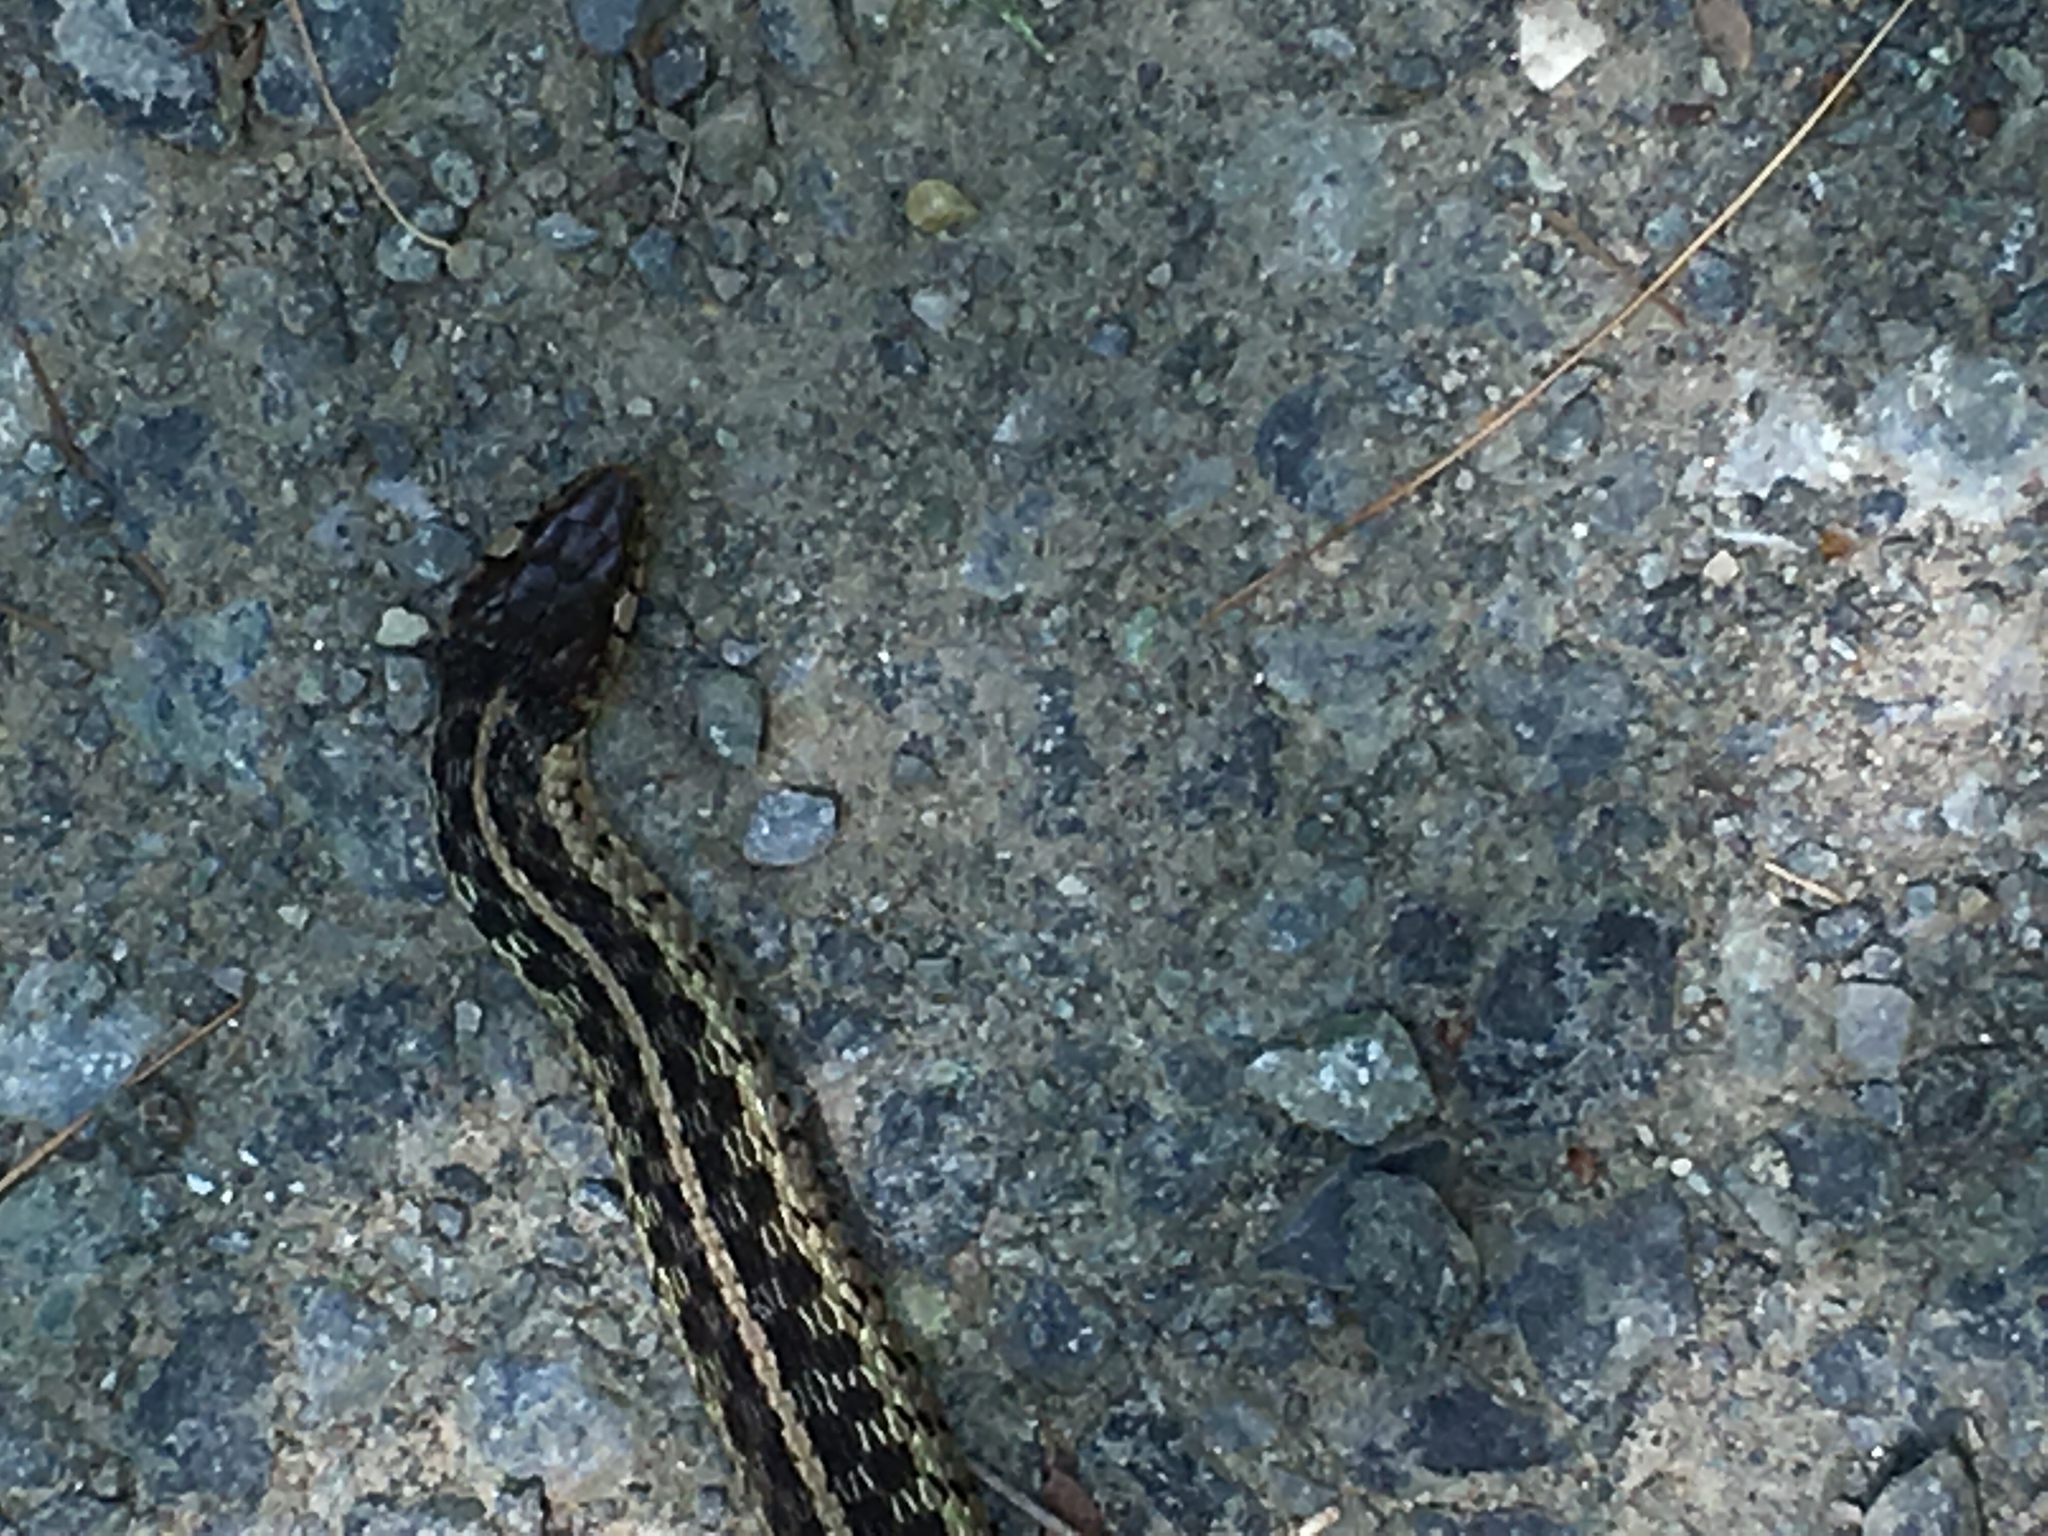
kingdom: Animalia
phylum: Chordata
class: Squamata
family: Colubridae
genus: Thamnophis
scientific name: Thamnophis sirtalis
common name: Common garter snake
